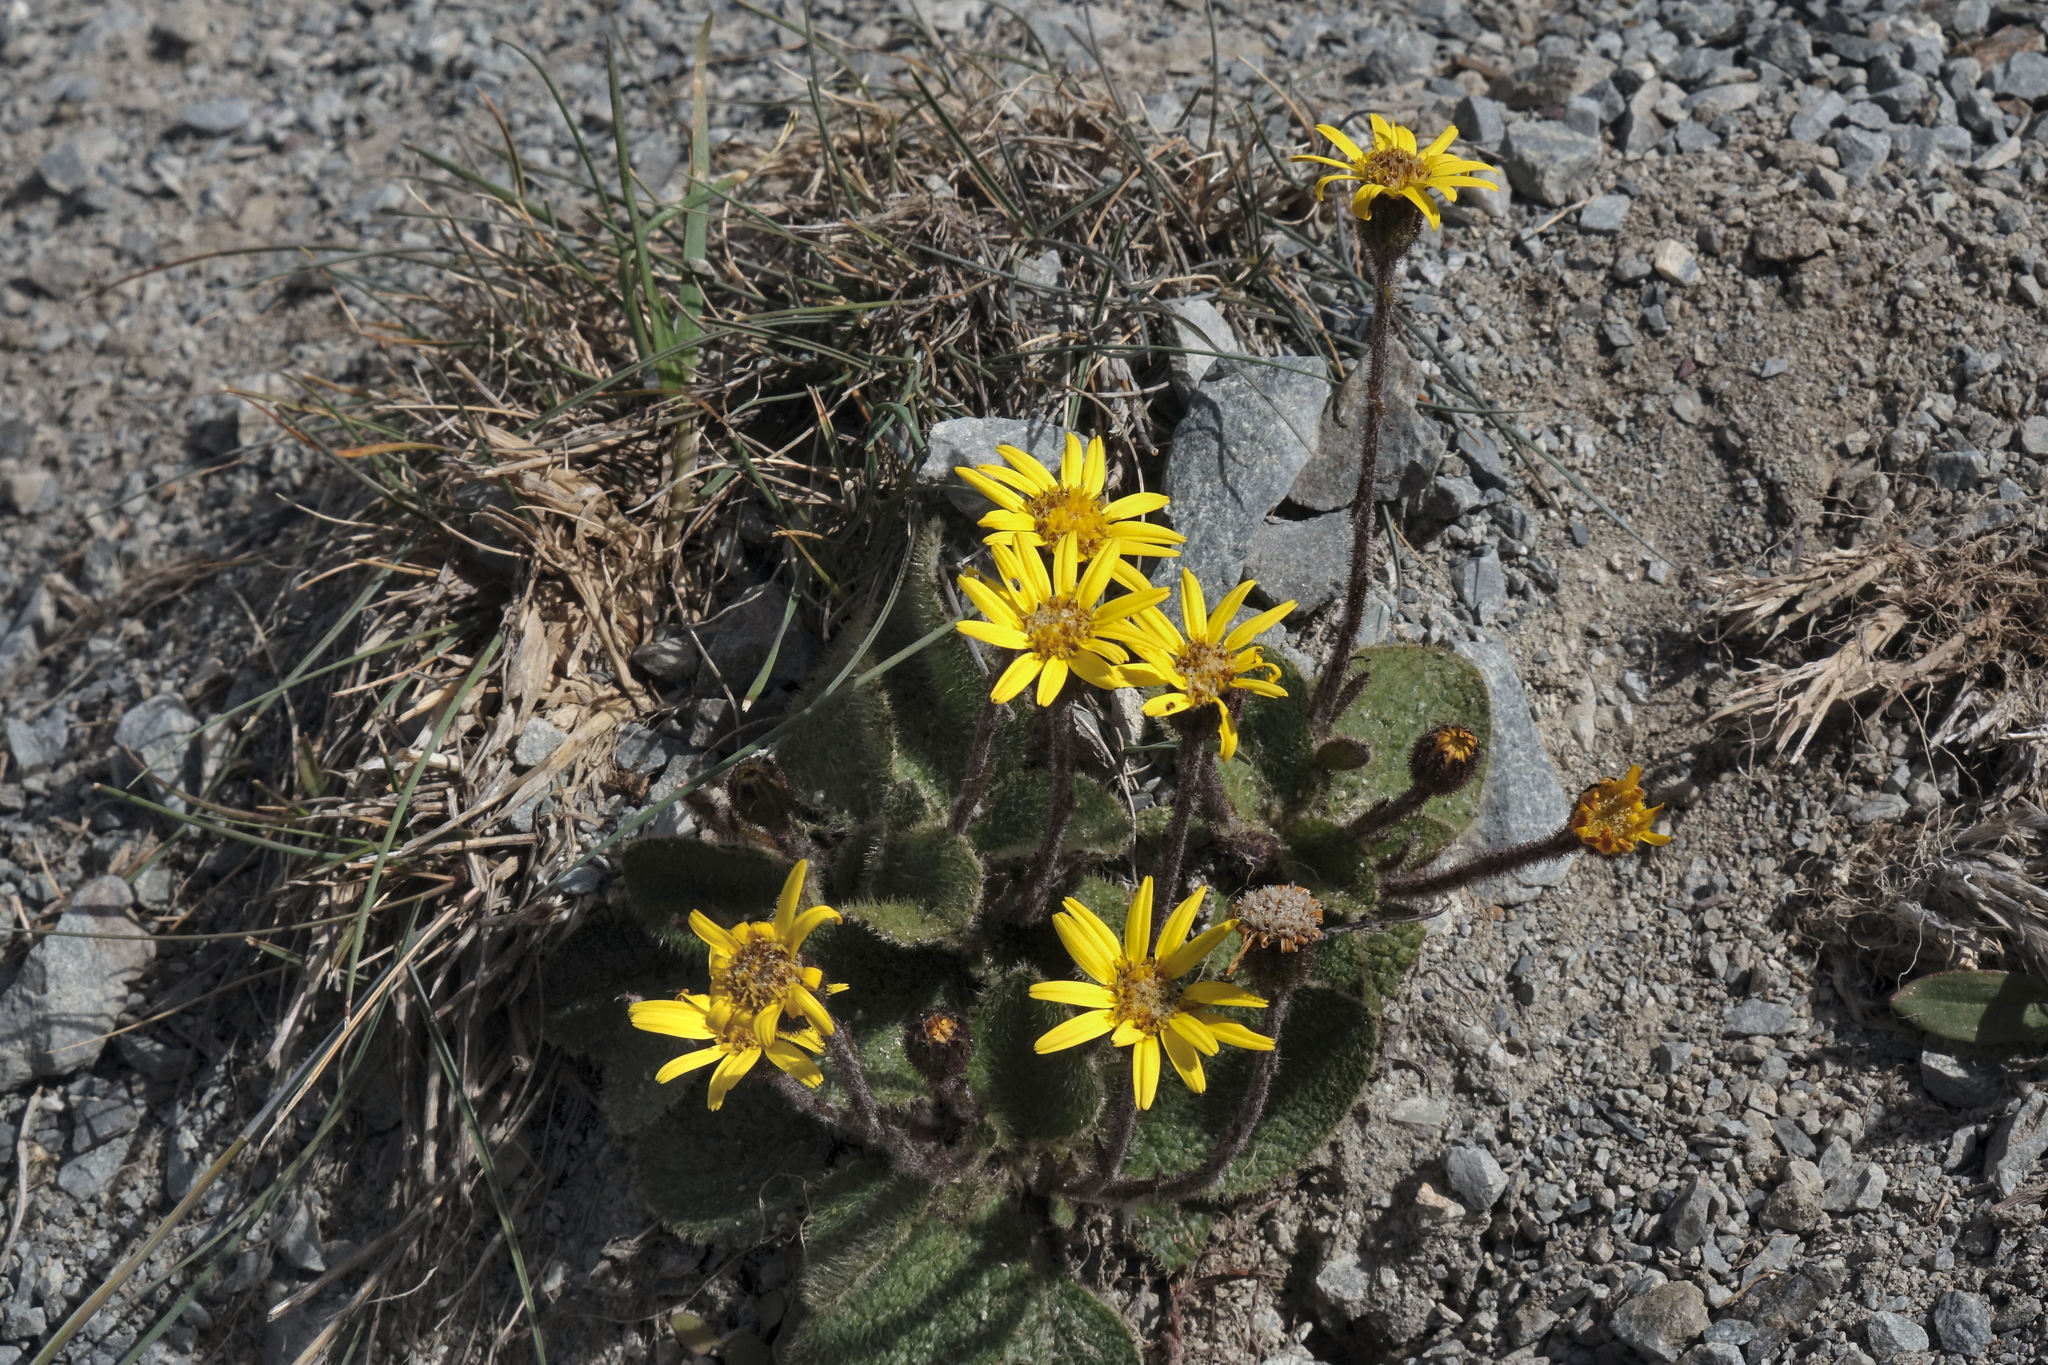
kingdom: Plantae
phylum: Tracheophyta
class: Magnoliopsida
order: Asterales
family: Asteraceae
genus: Brachyglottis
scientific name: Brachyglottis lagopus
